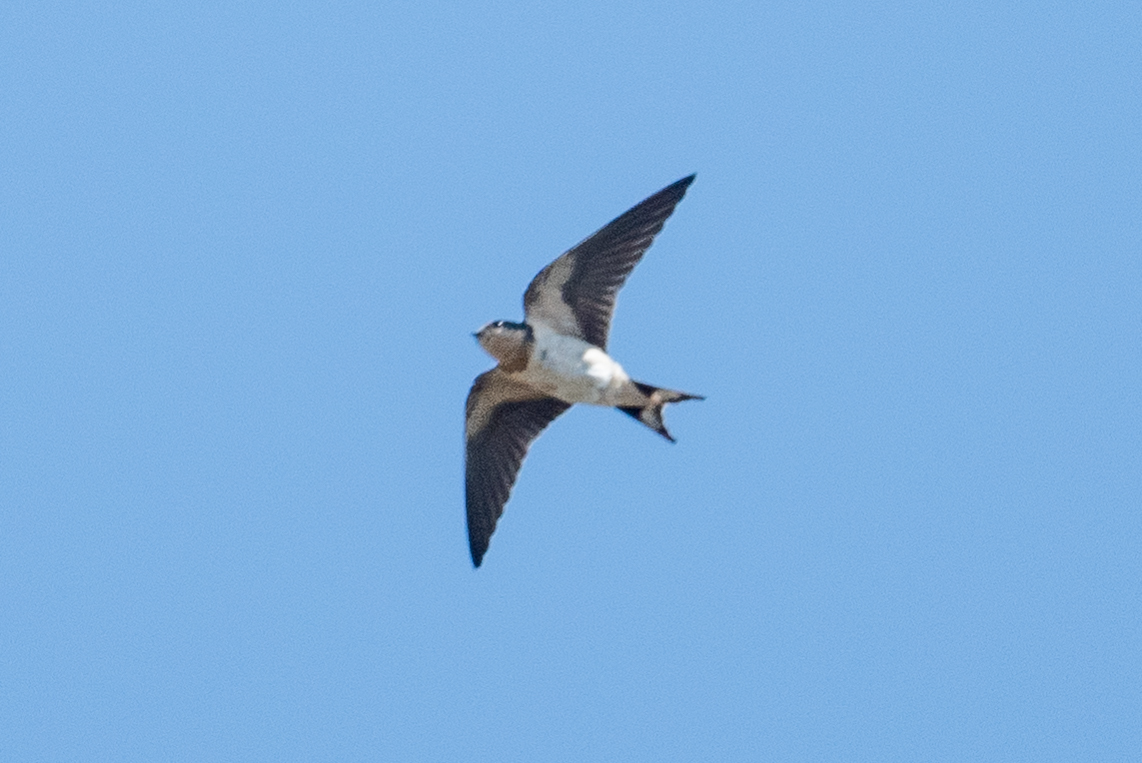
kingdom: Animalia
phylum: Chordata
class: Aves
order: Passeriformes
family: Hirundinidae
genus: Hirundo
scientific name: Hirundo rustica
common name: Barn swallow
